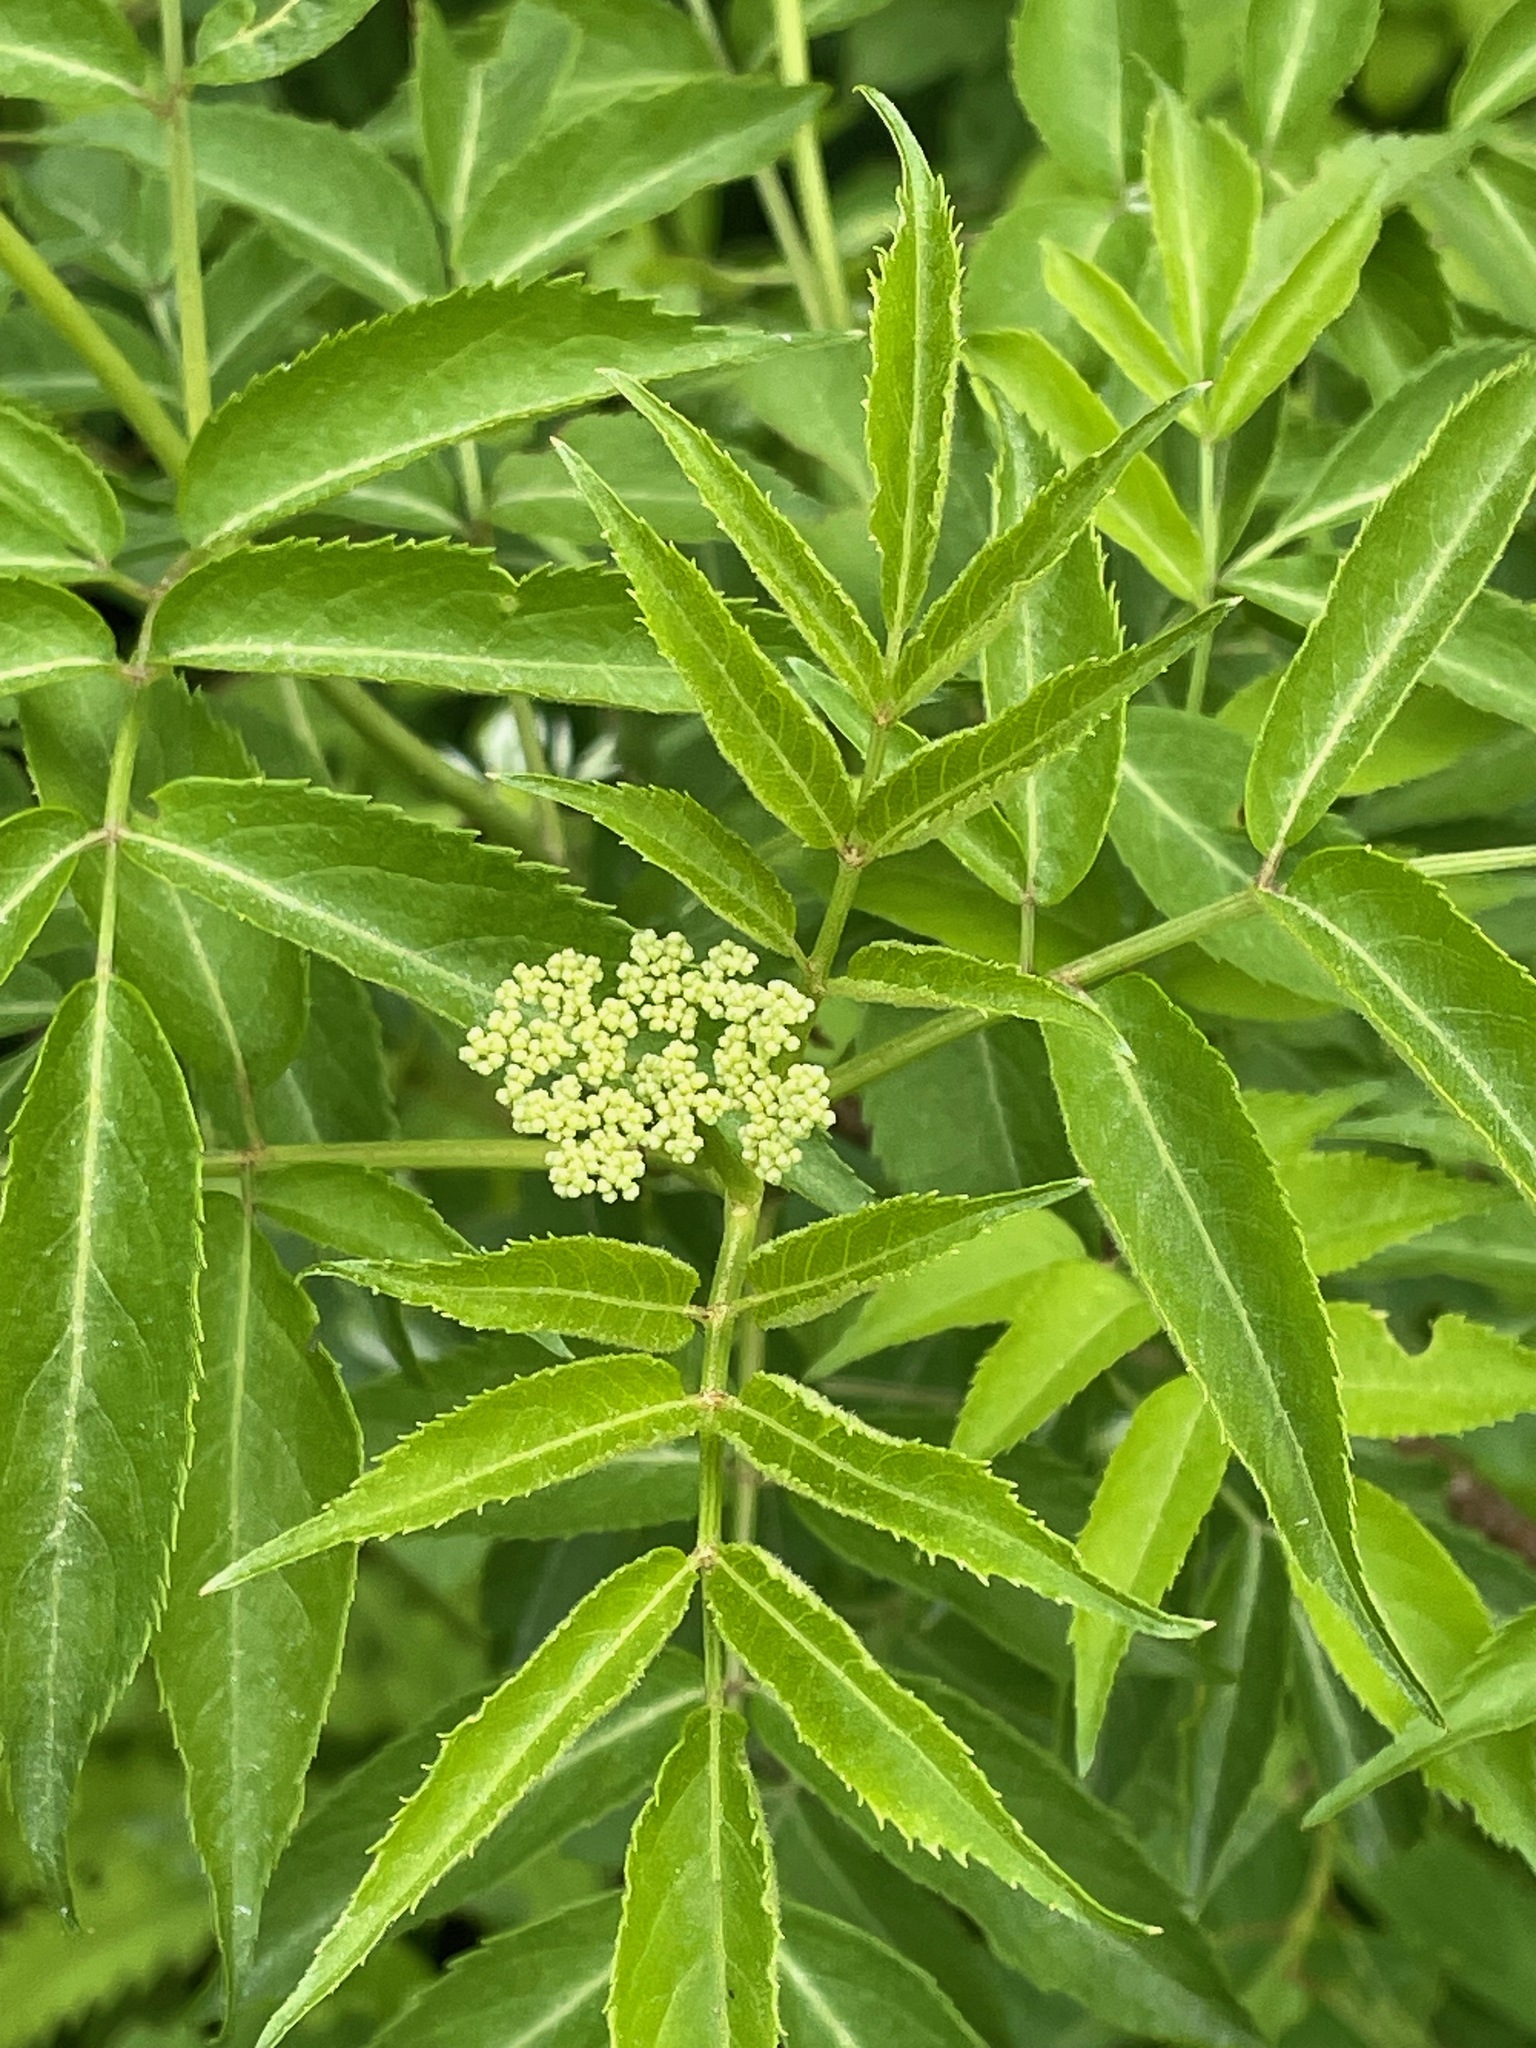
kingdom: Plantae
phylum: Tracheophyta
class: Magnoliopsida
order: Dipsacales
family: Viburnaceae
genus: Sambucus
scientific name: Sambucus canadensis
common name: American elder
